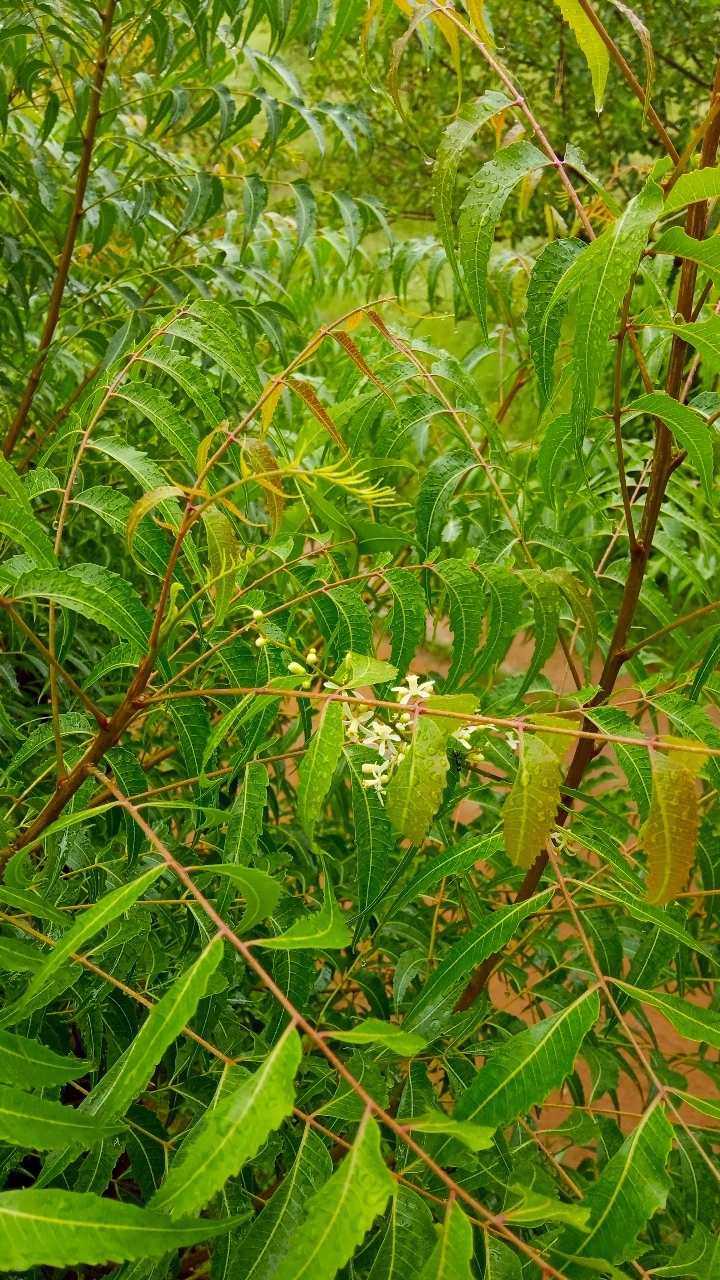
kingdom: Plantae
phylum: Tracheophyta
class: Magnoliopsida
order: Sapindales
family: Meliaceae
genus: Azadirachta
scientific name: Azadirachta indica
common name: Neem
